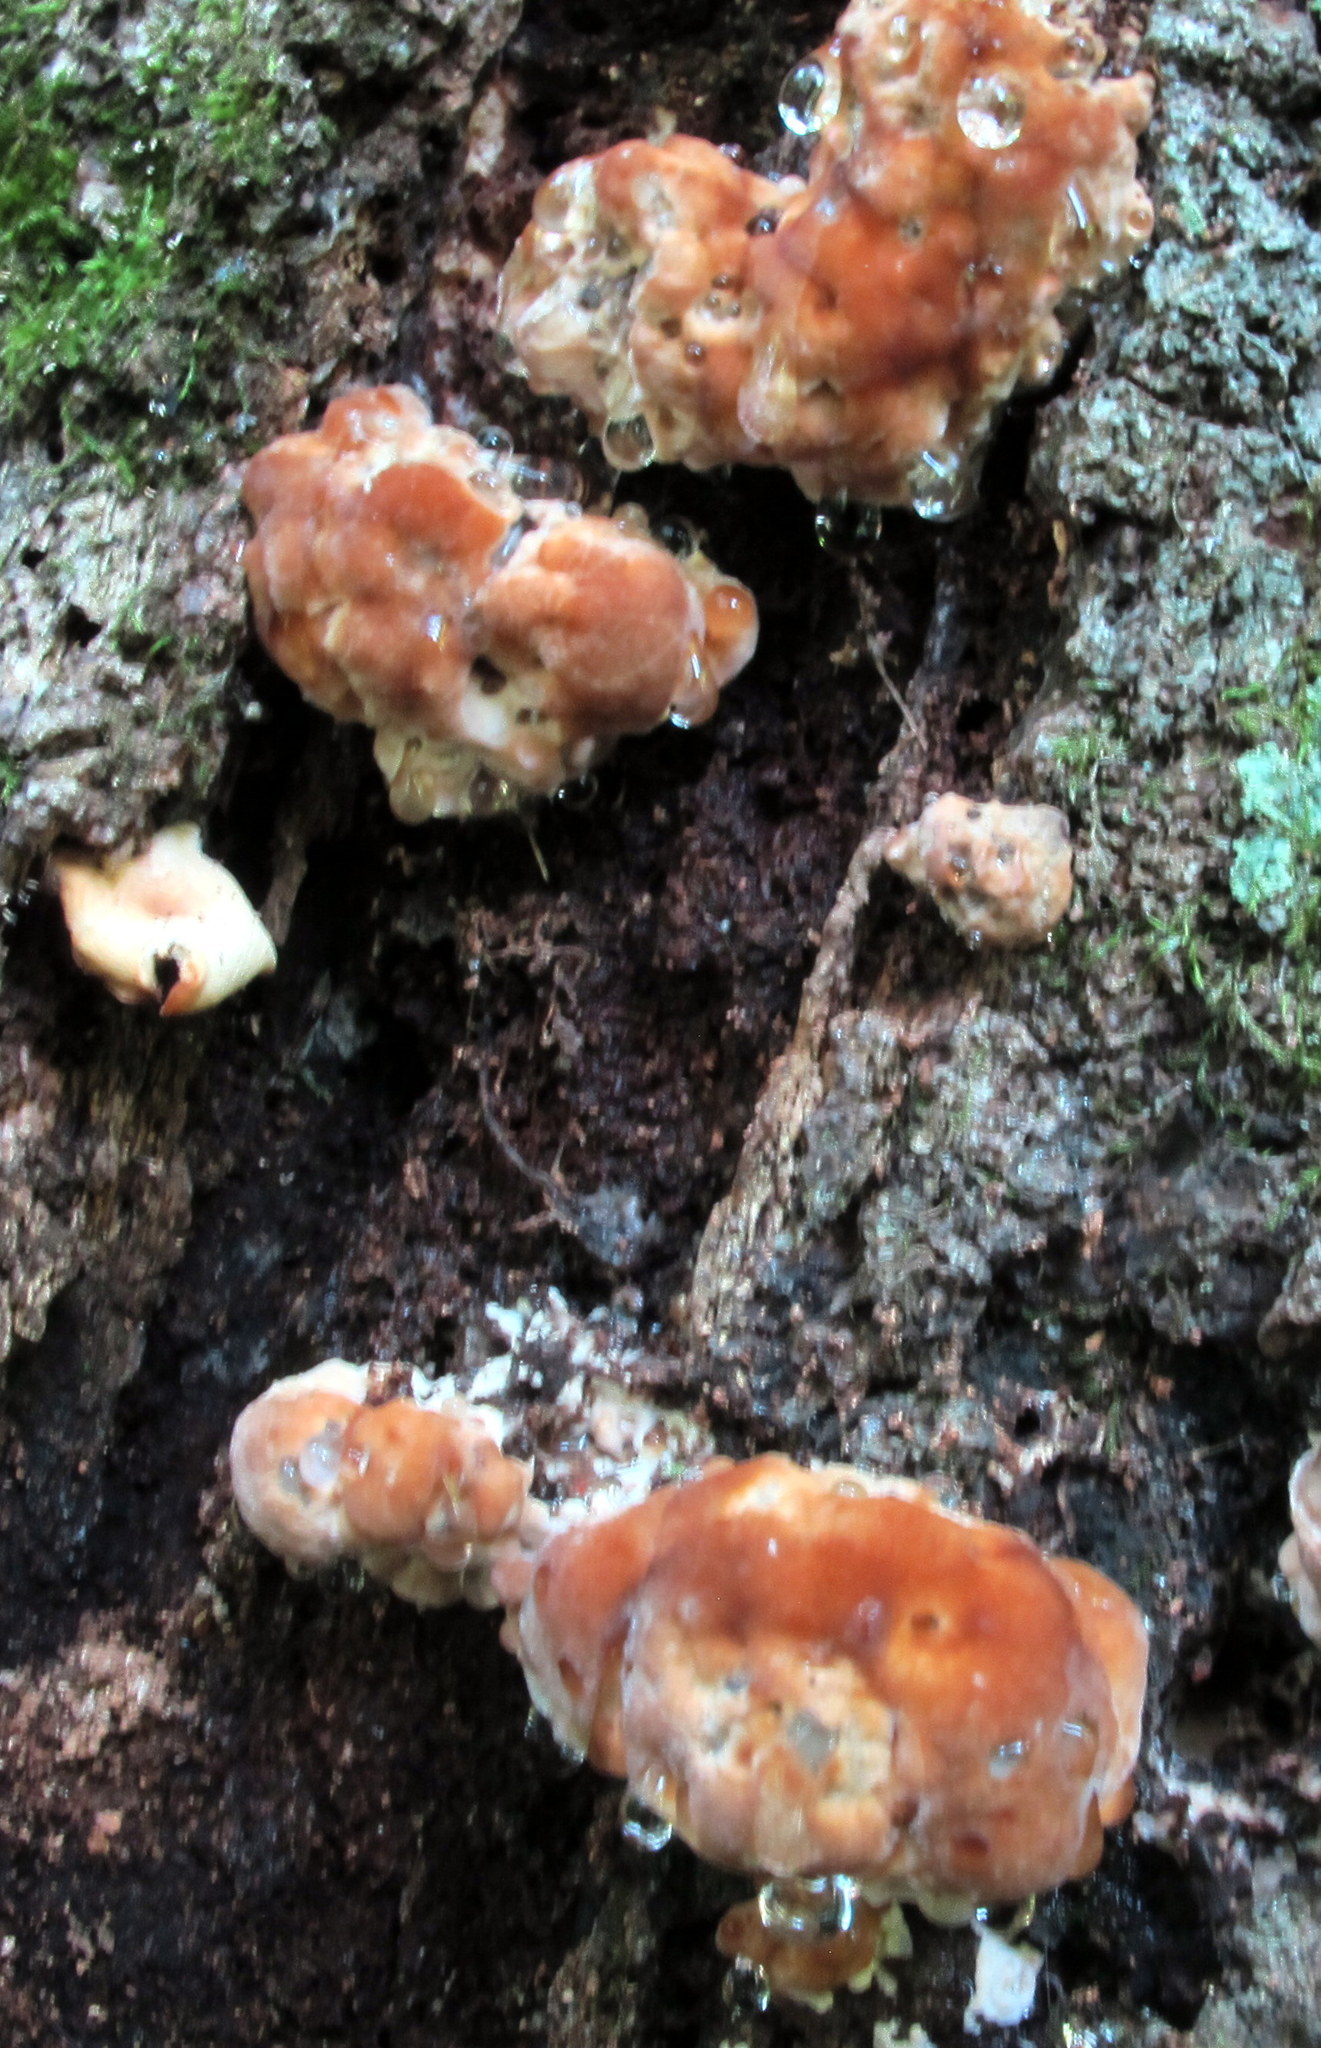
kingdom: Fungi
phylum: Basidiomycota
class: Agaricomycetes
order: Polyporales
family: Fomitopsidaceae
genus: Niveoporofomes
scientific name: Niveoporofomes spraguei
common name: Green cheese polypore
